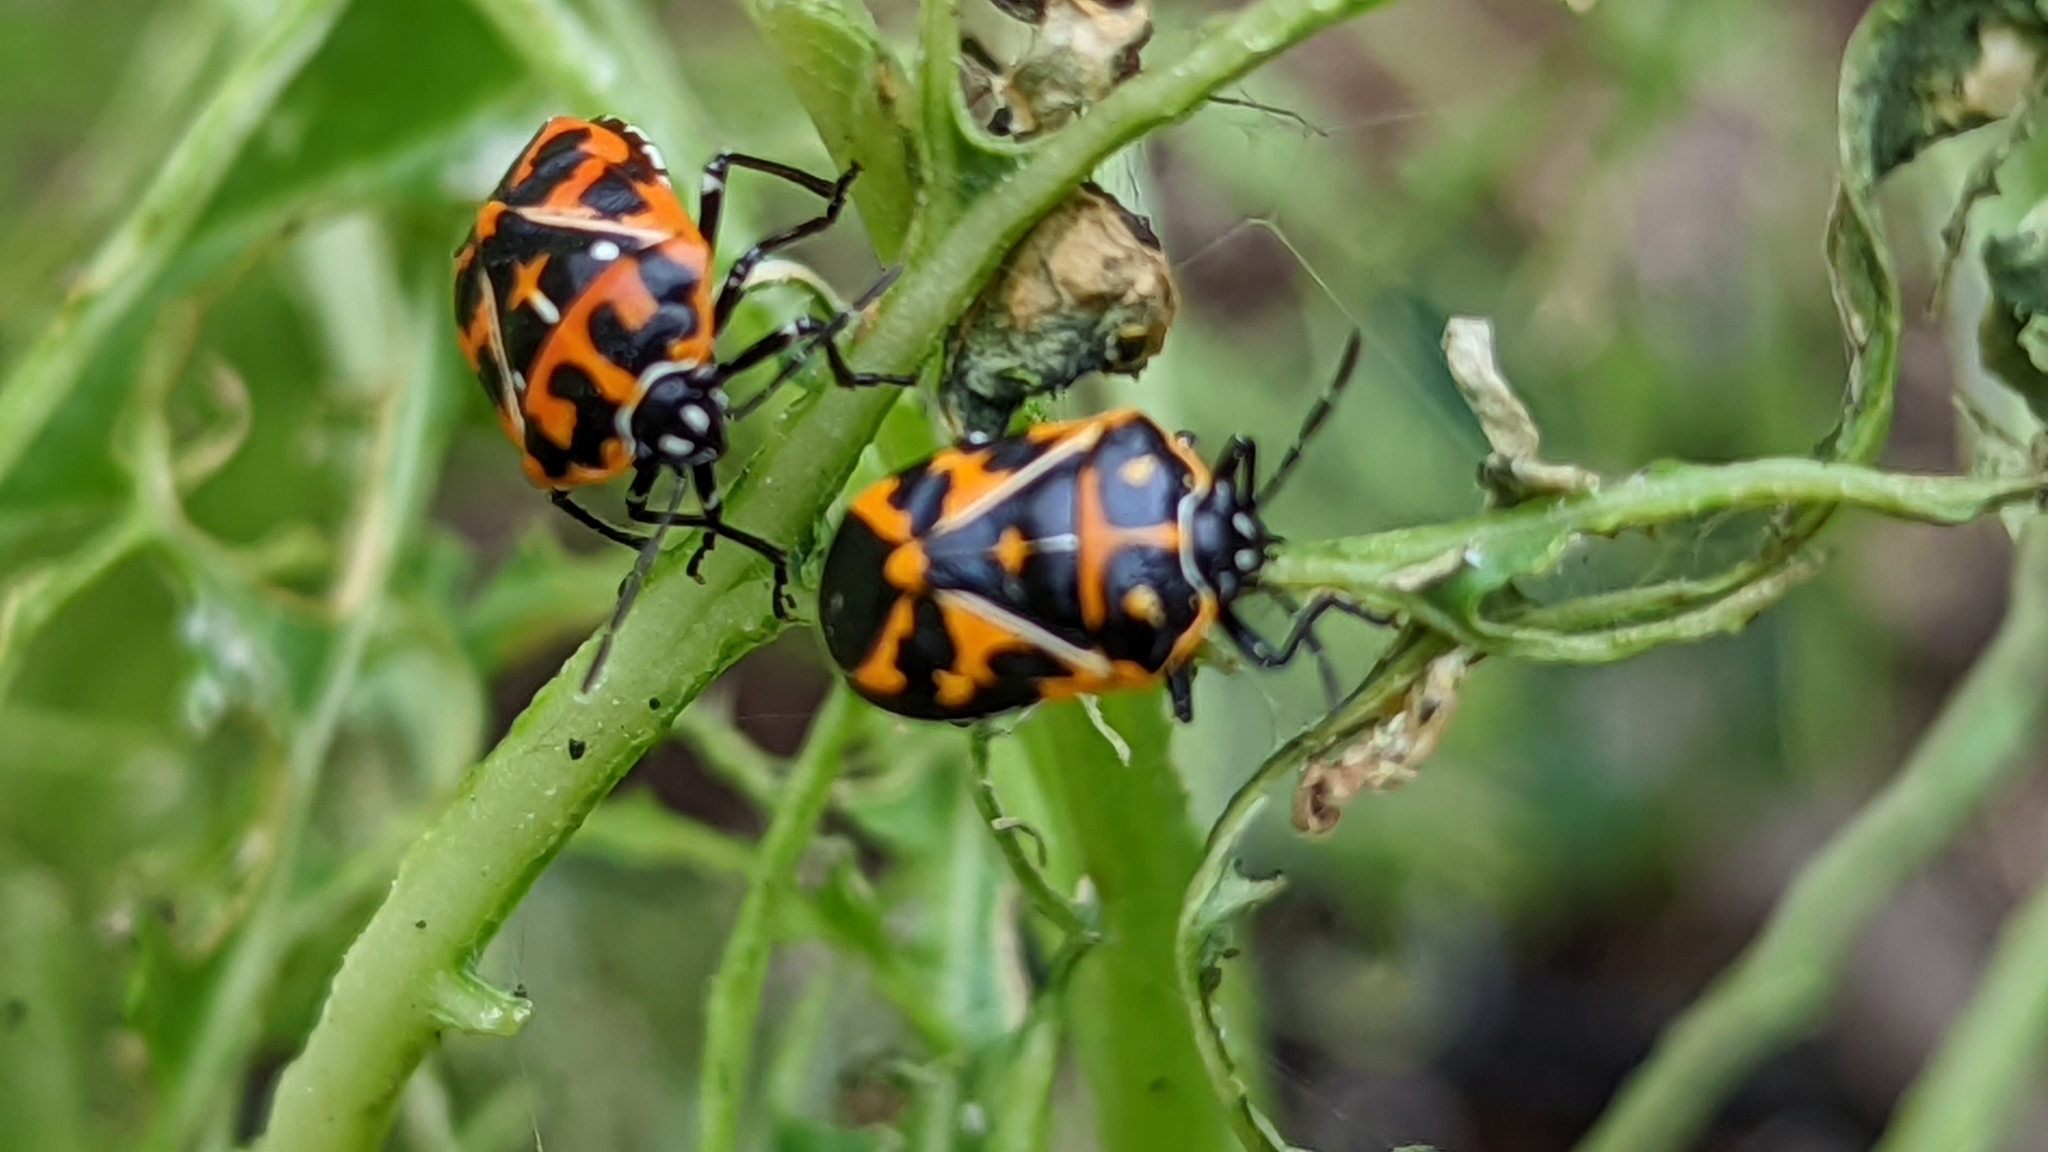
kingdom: Animalia
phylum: Arthropoda
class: Insecta
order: Hemiptera
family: Pentatomidae
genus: Murgantia
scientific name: Murgantia histrionica
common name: Harlequin bug
